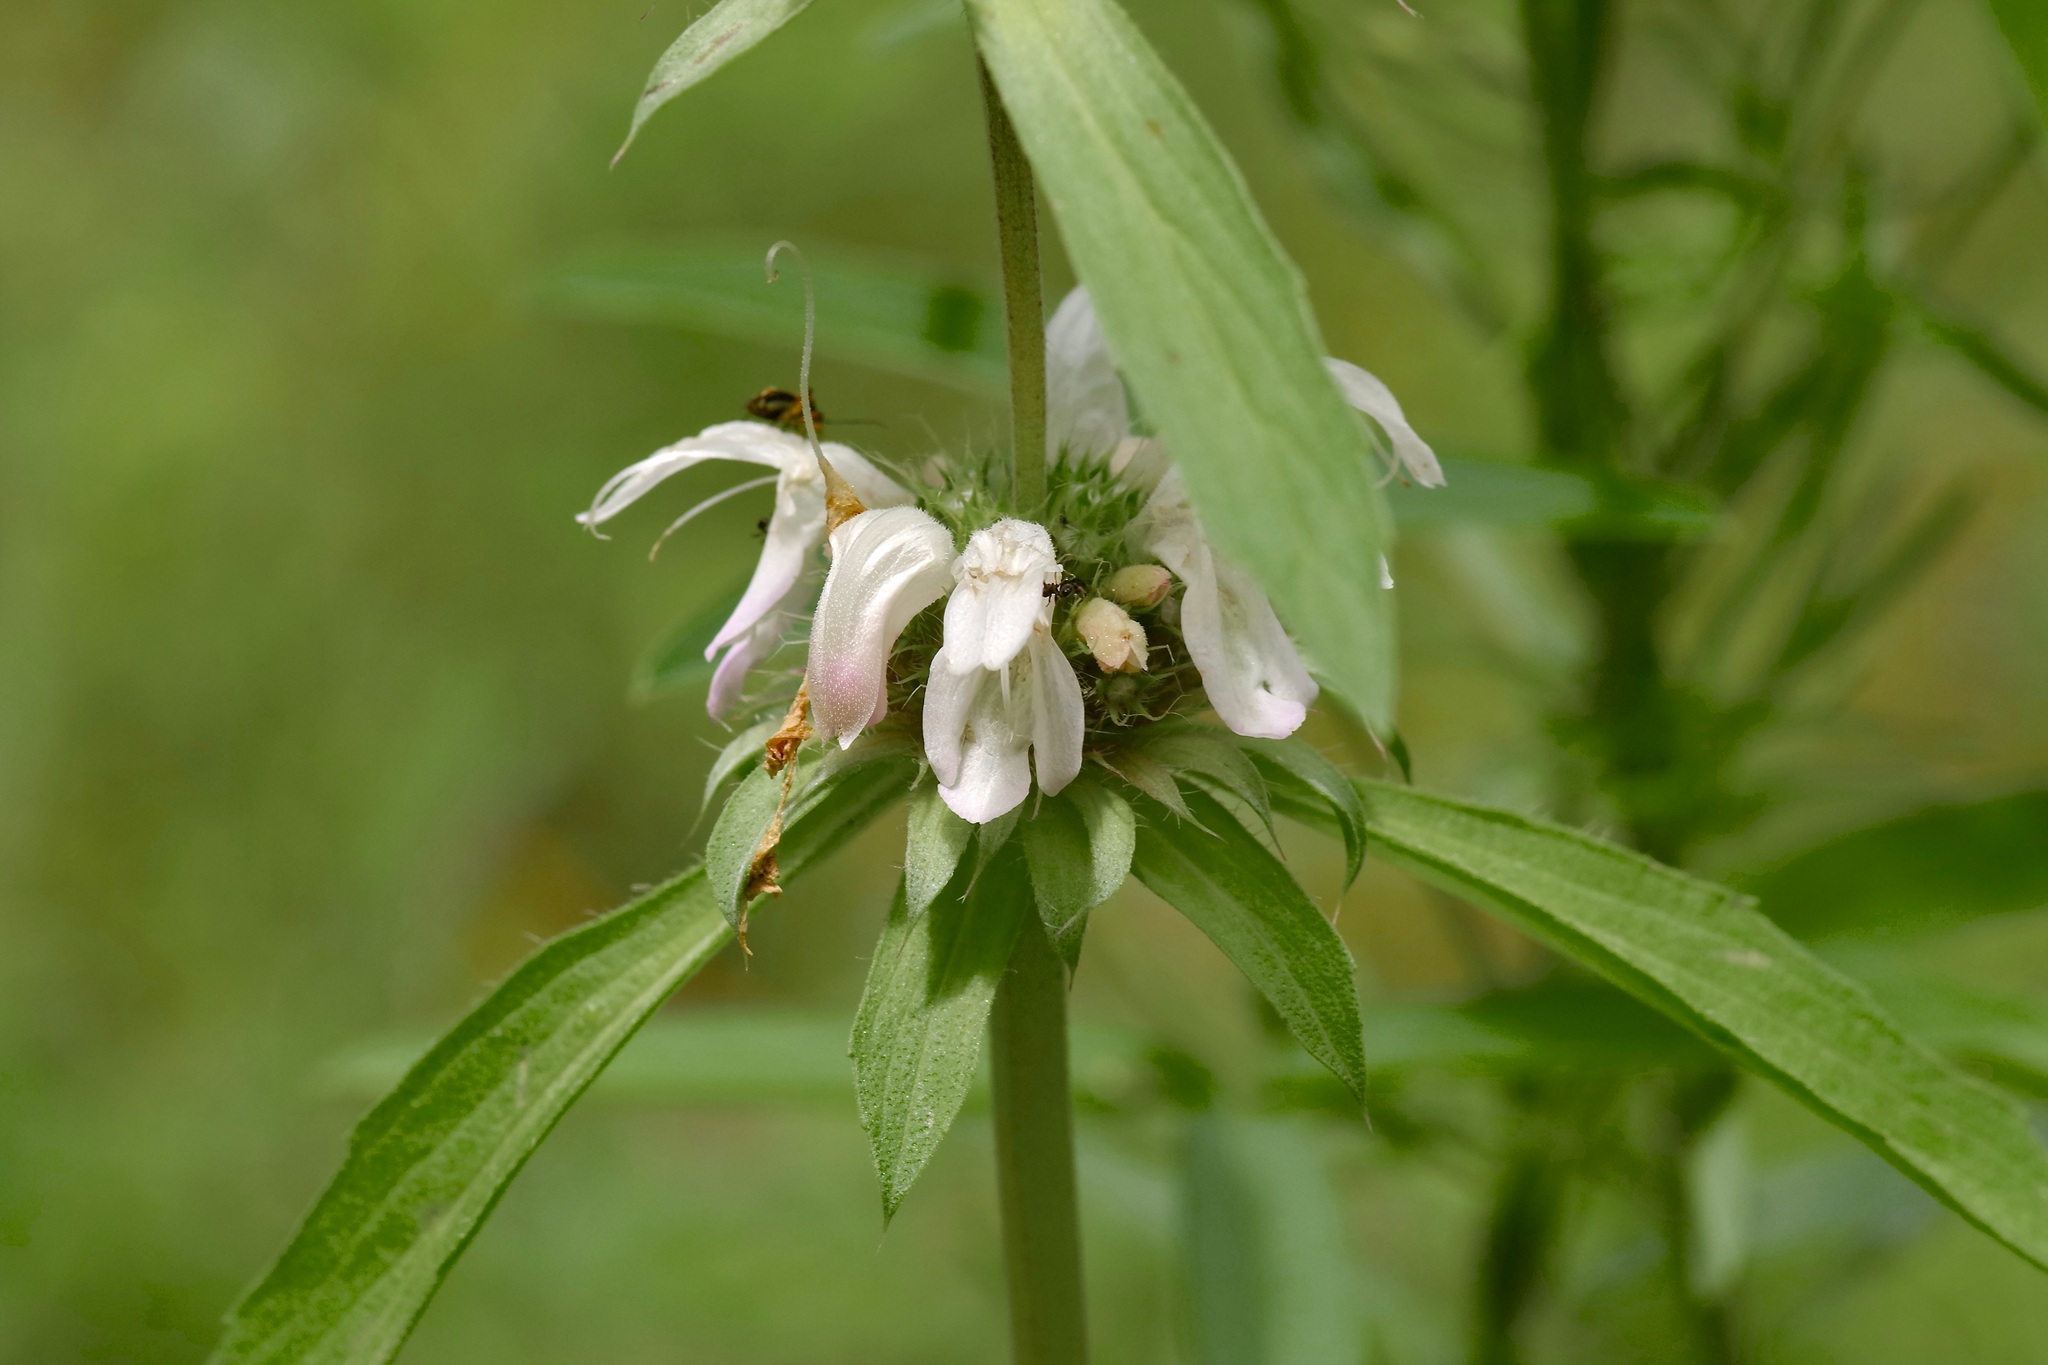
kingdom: Plantae
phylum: Tracheophyta
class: Magnoliopsida
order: Lamiales
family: Lamiaceae
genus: Monarda
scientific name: Monarda pectinata
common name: Plains beebalm
